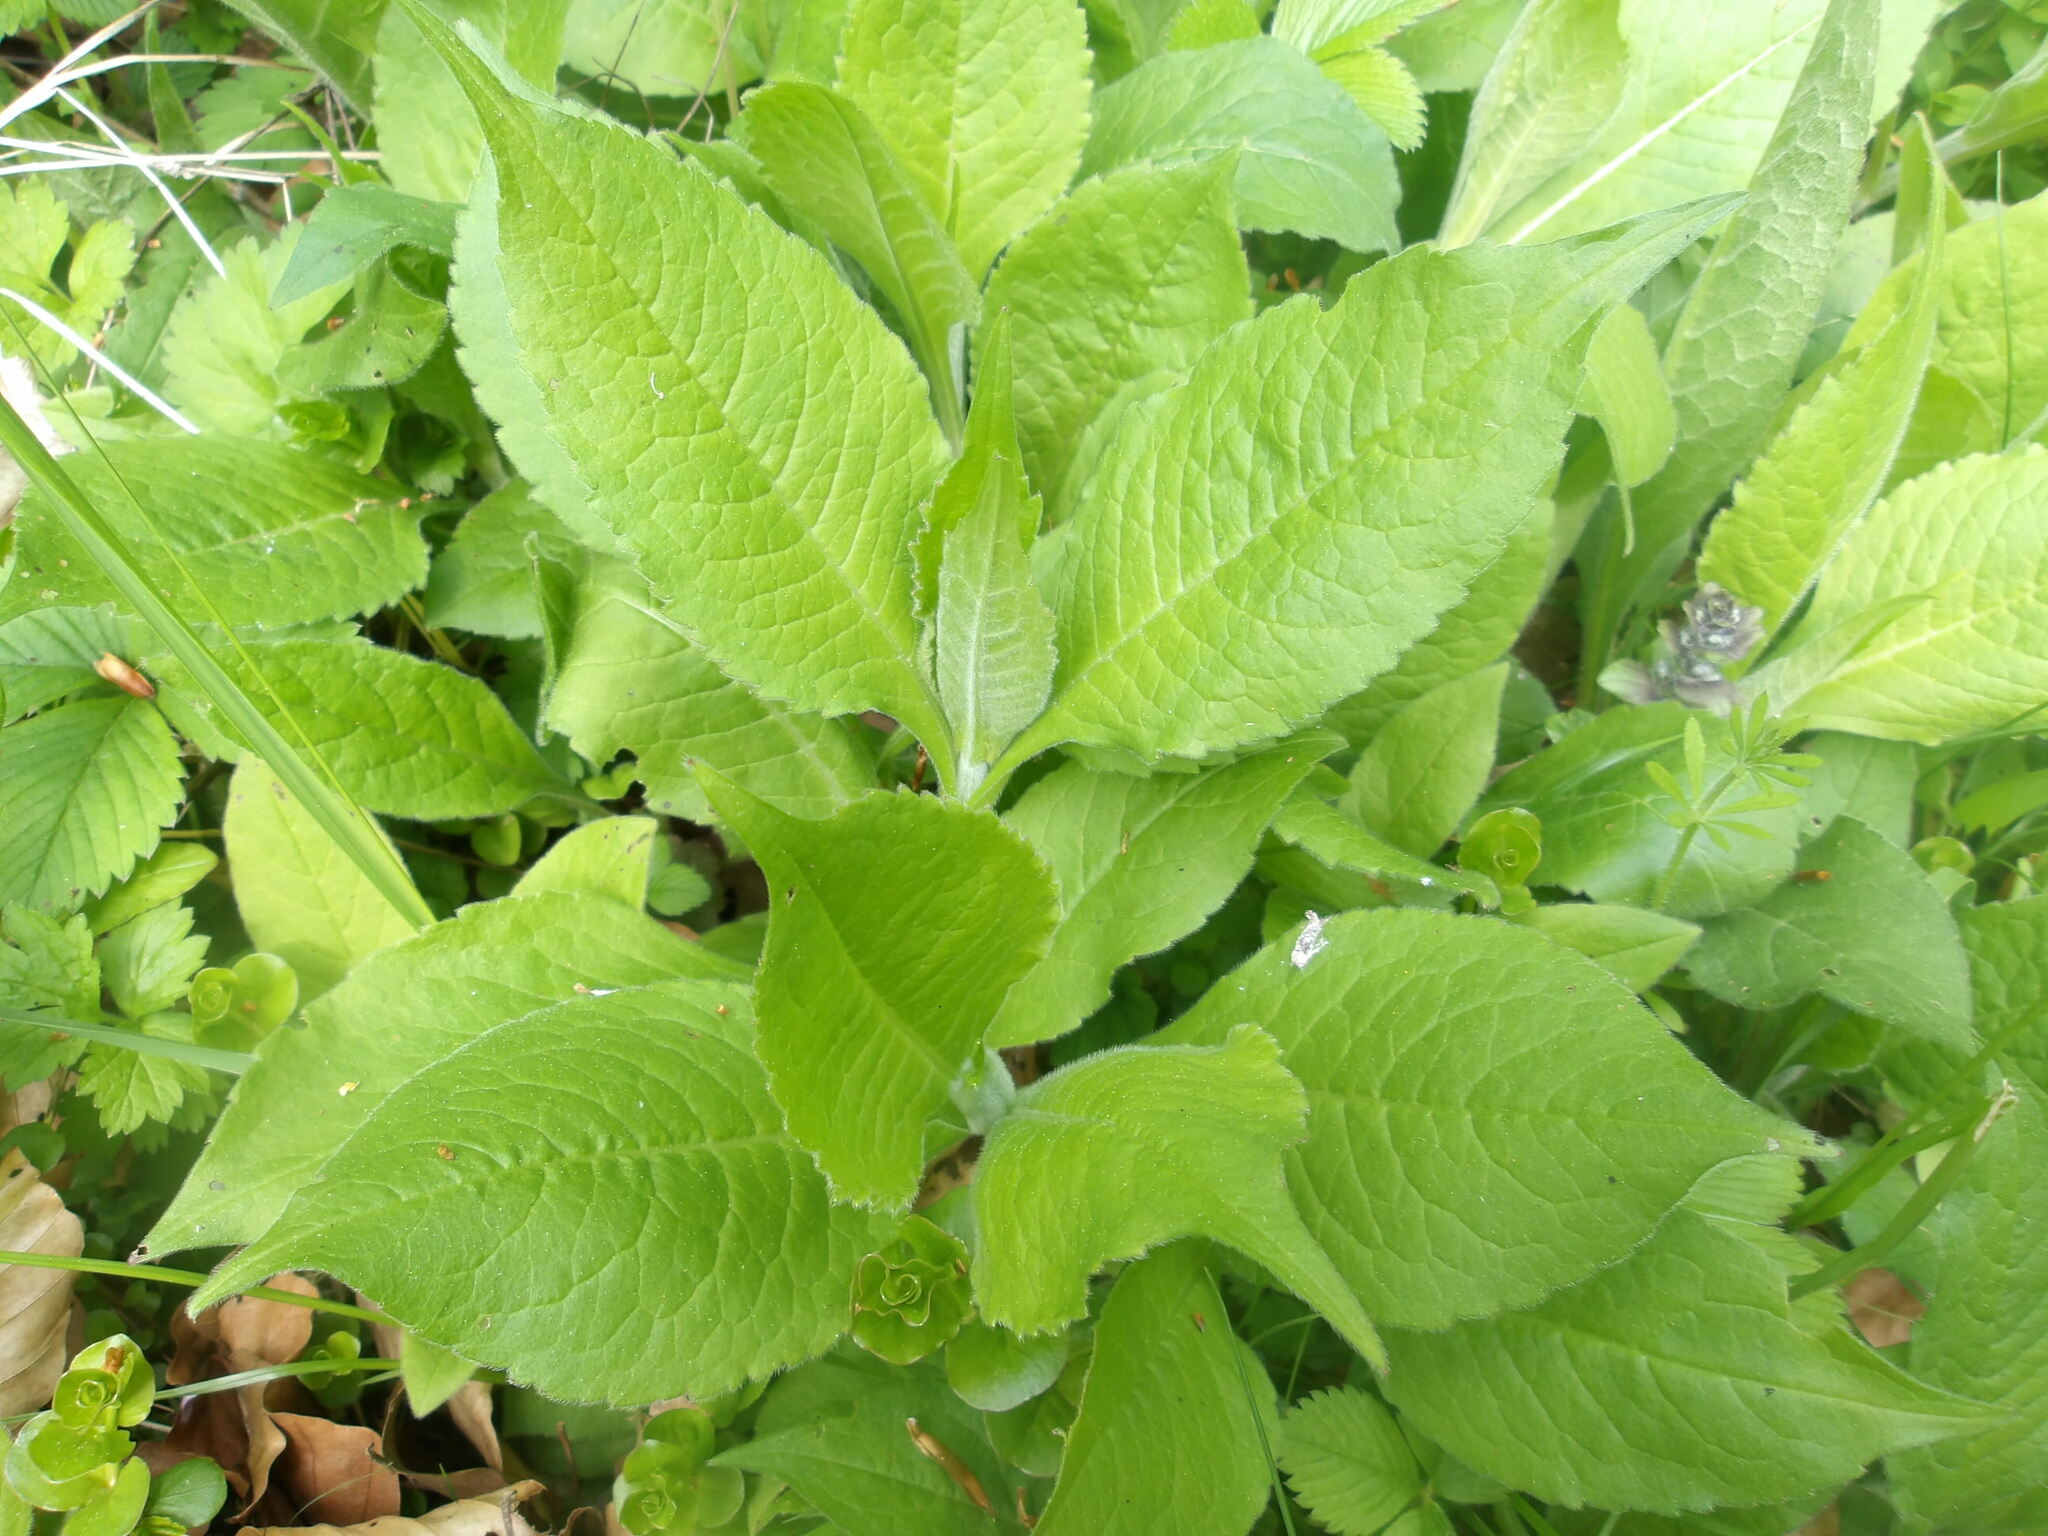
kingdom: Plantae
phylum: Tracheophyta
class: Magnoliopsida
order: Dipsacales
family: Caprifoliaceae
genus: Knautia
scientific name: Knautia drymeia
